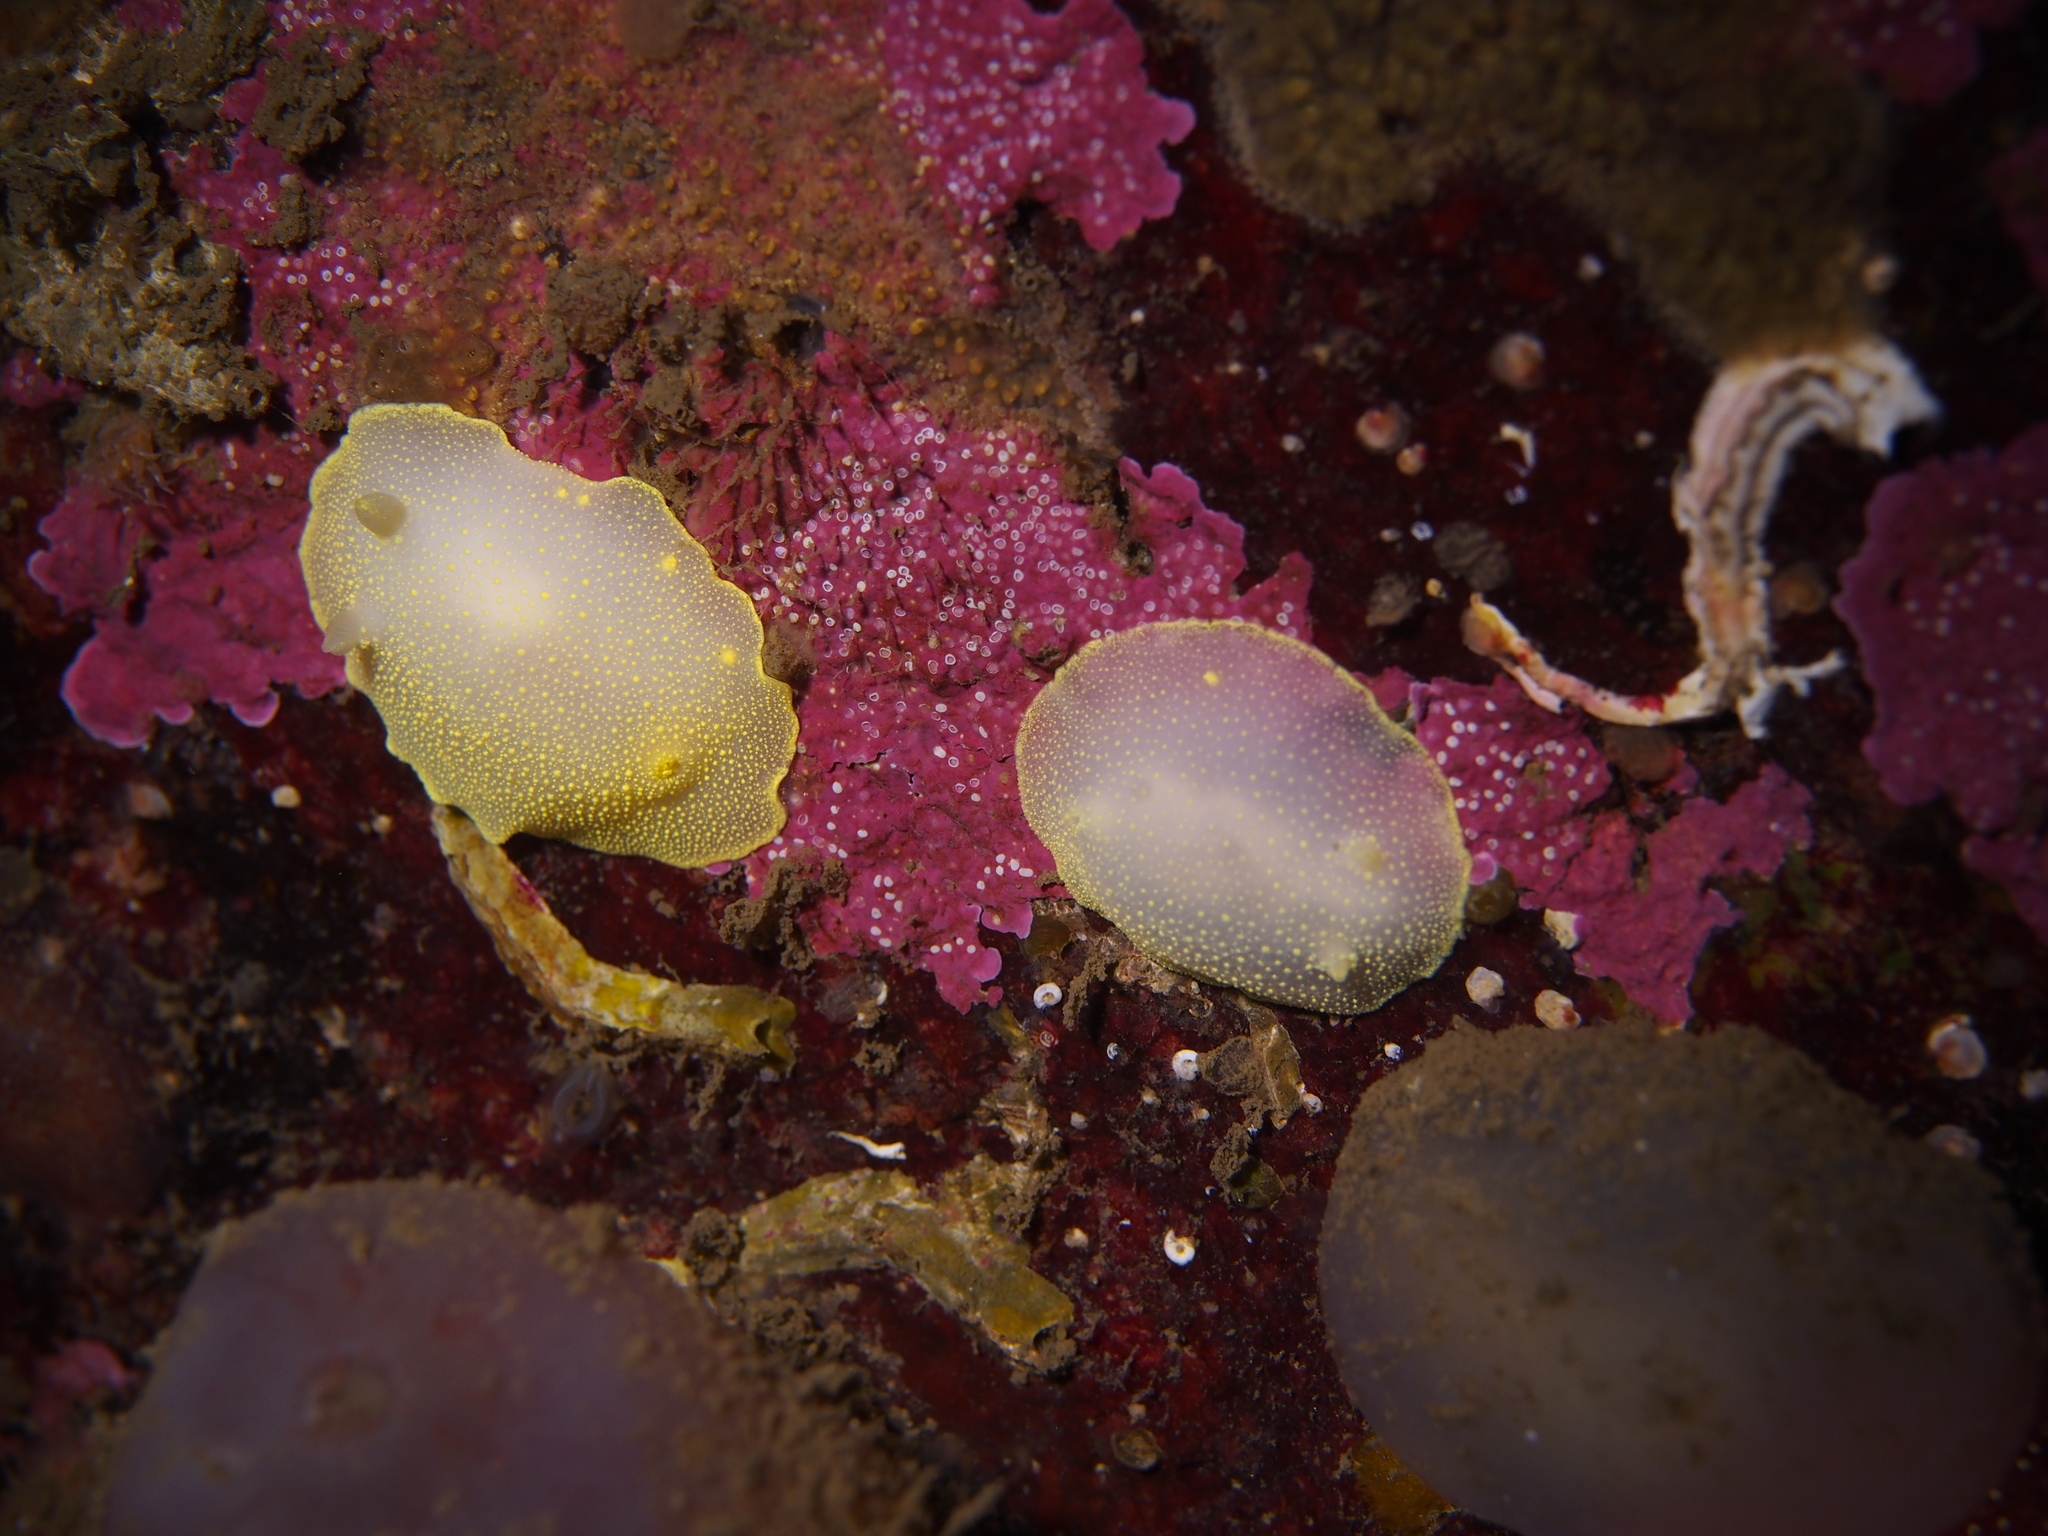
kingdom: Animalia
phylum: Mollusca
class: Gastropoda
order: Nudibranchia
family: Cadlinidae
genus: Cadlina
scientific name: Cadlina laevis
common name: White atlantic cadlina
